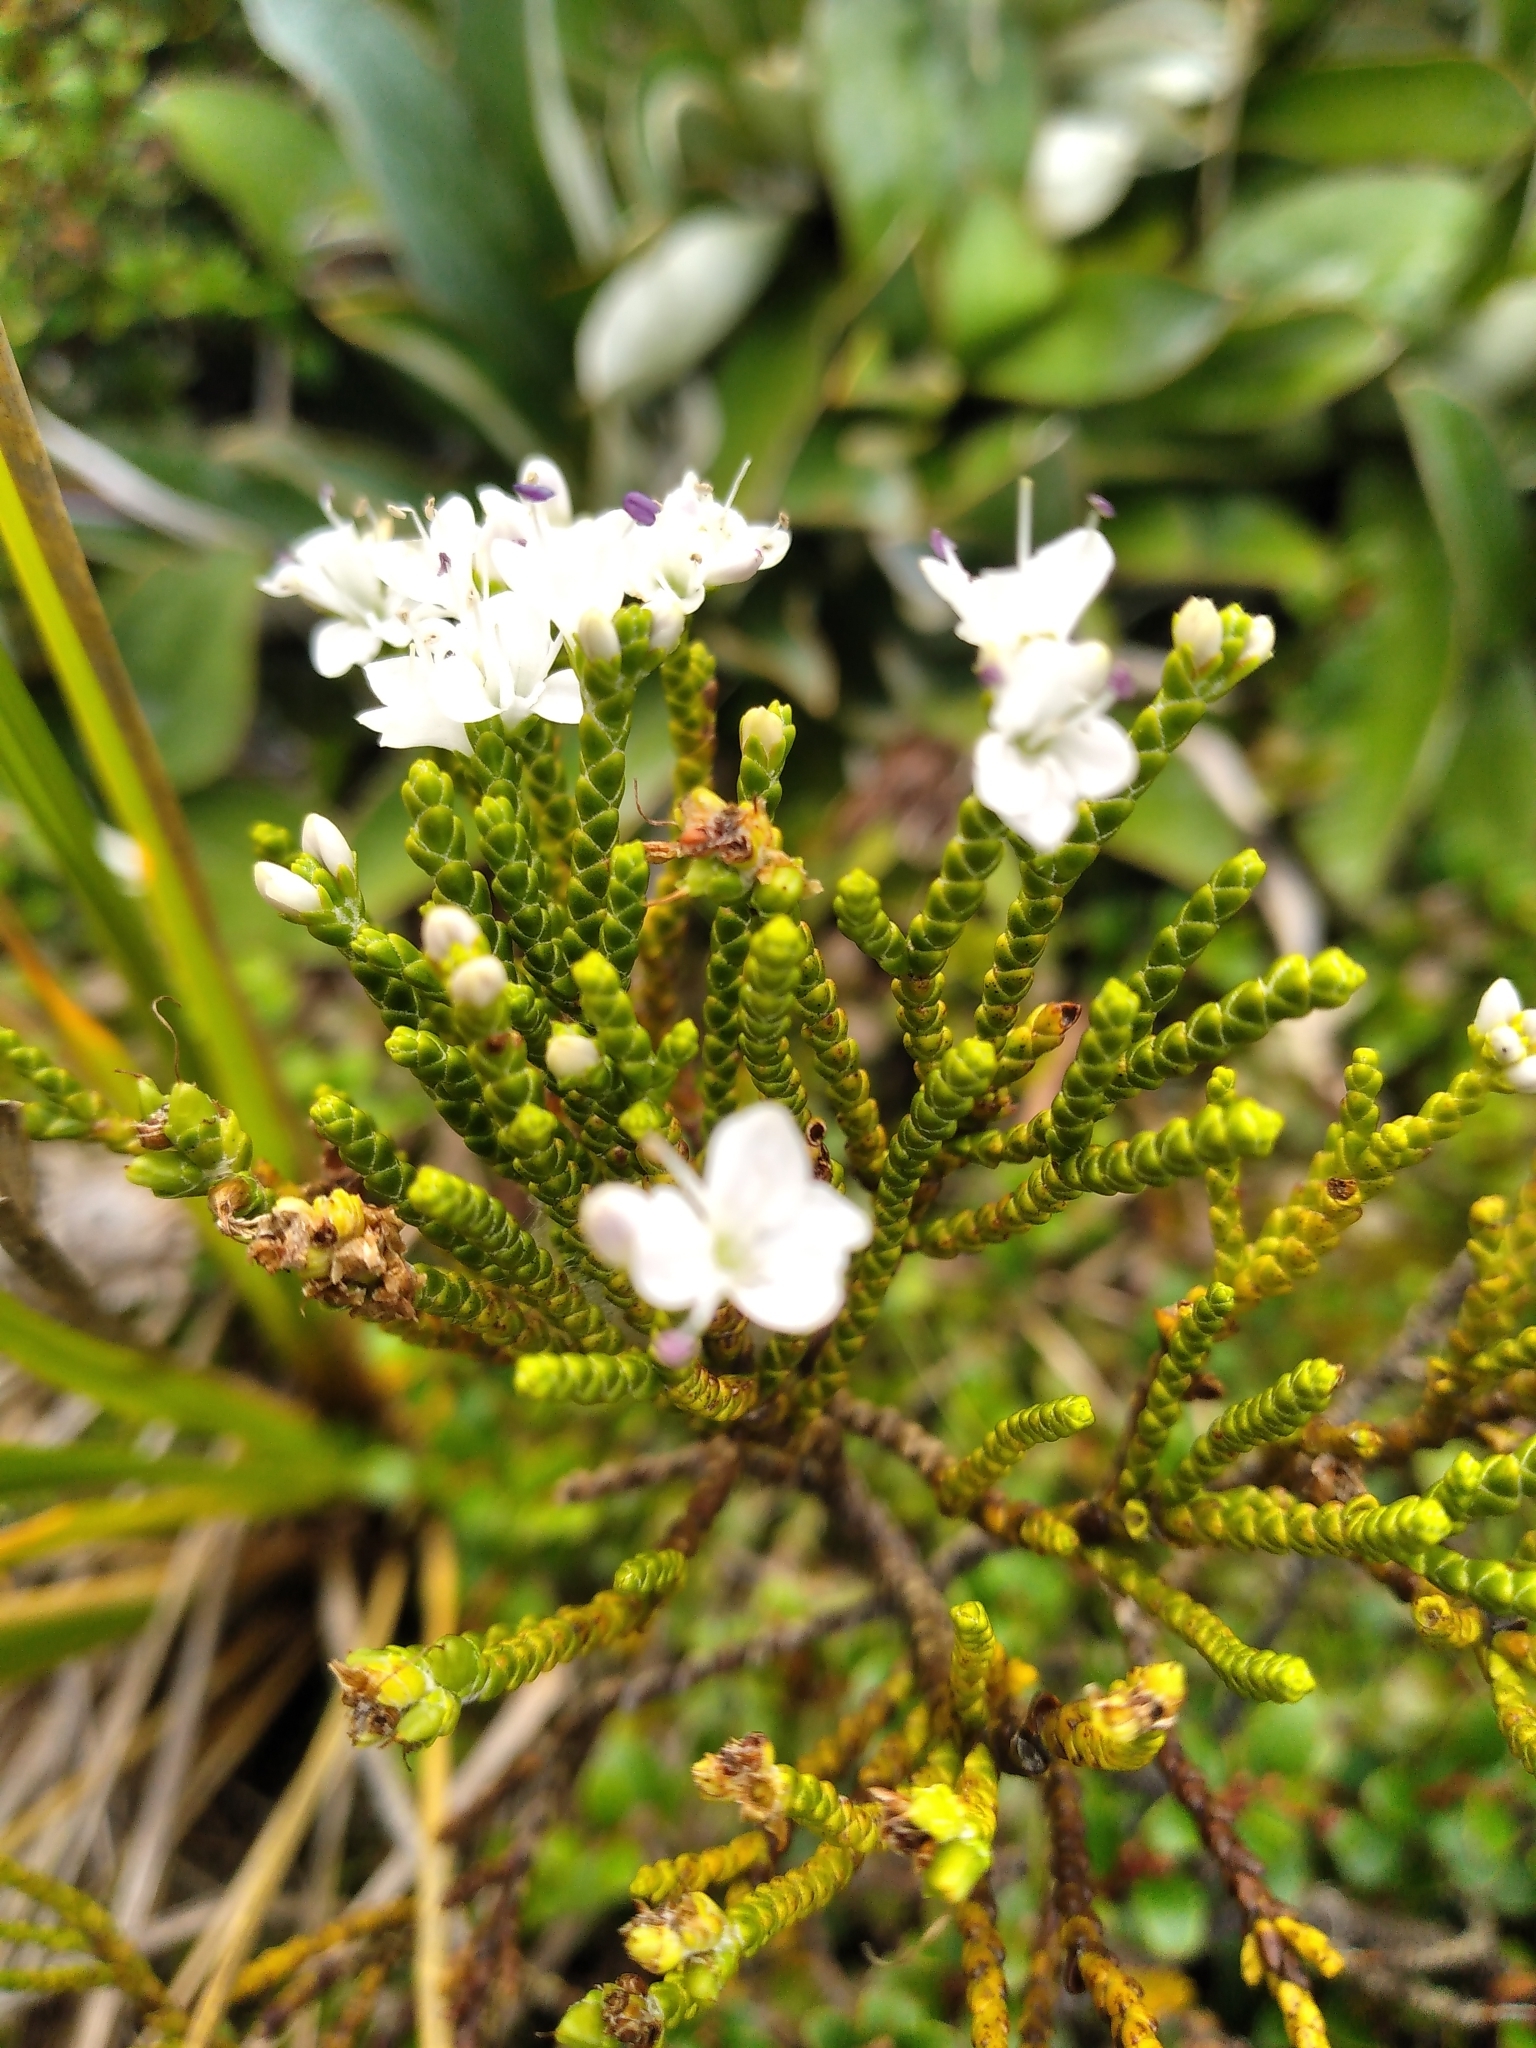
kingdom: Plantae
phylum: Tracheophyta
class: Magnoliopsida
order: Lamiales
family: Plantaginaceae
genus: Veronica
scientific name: Veronica hectorii
